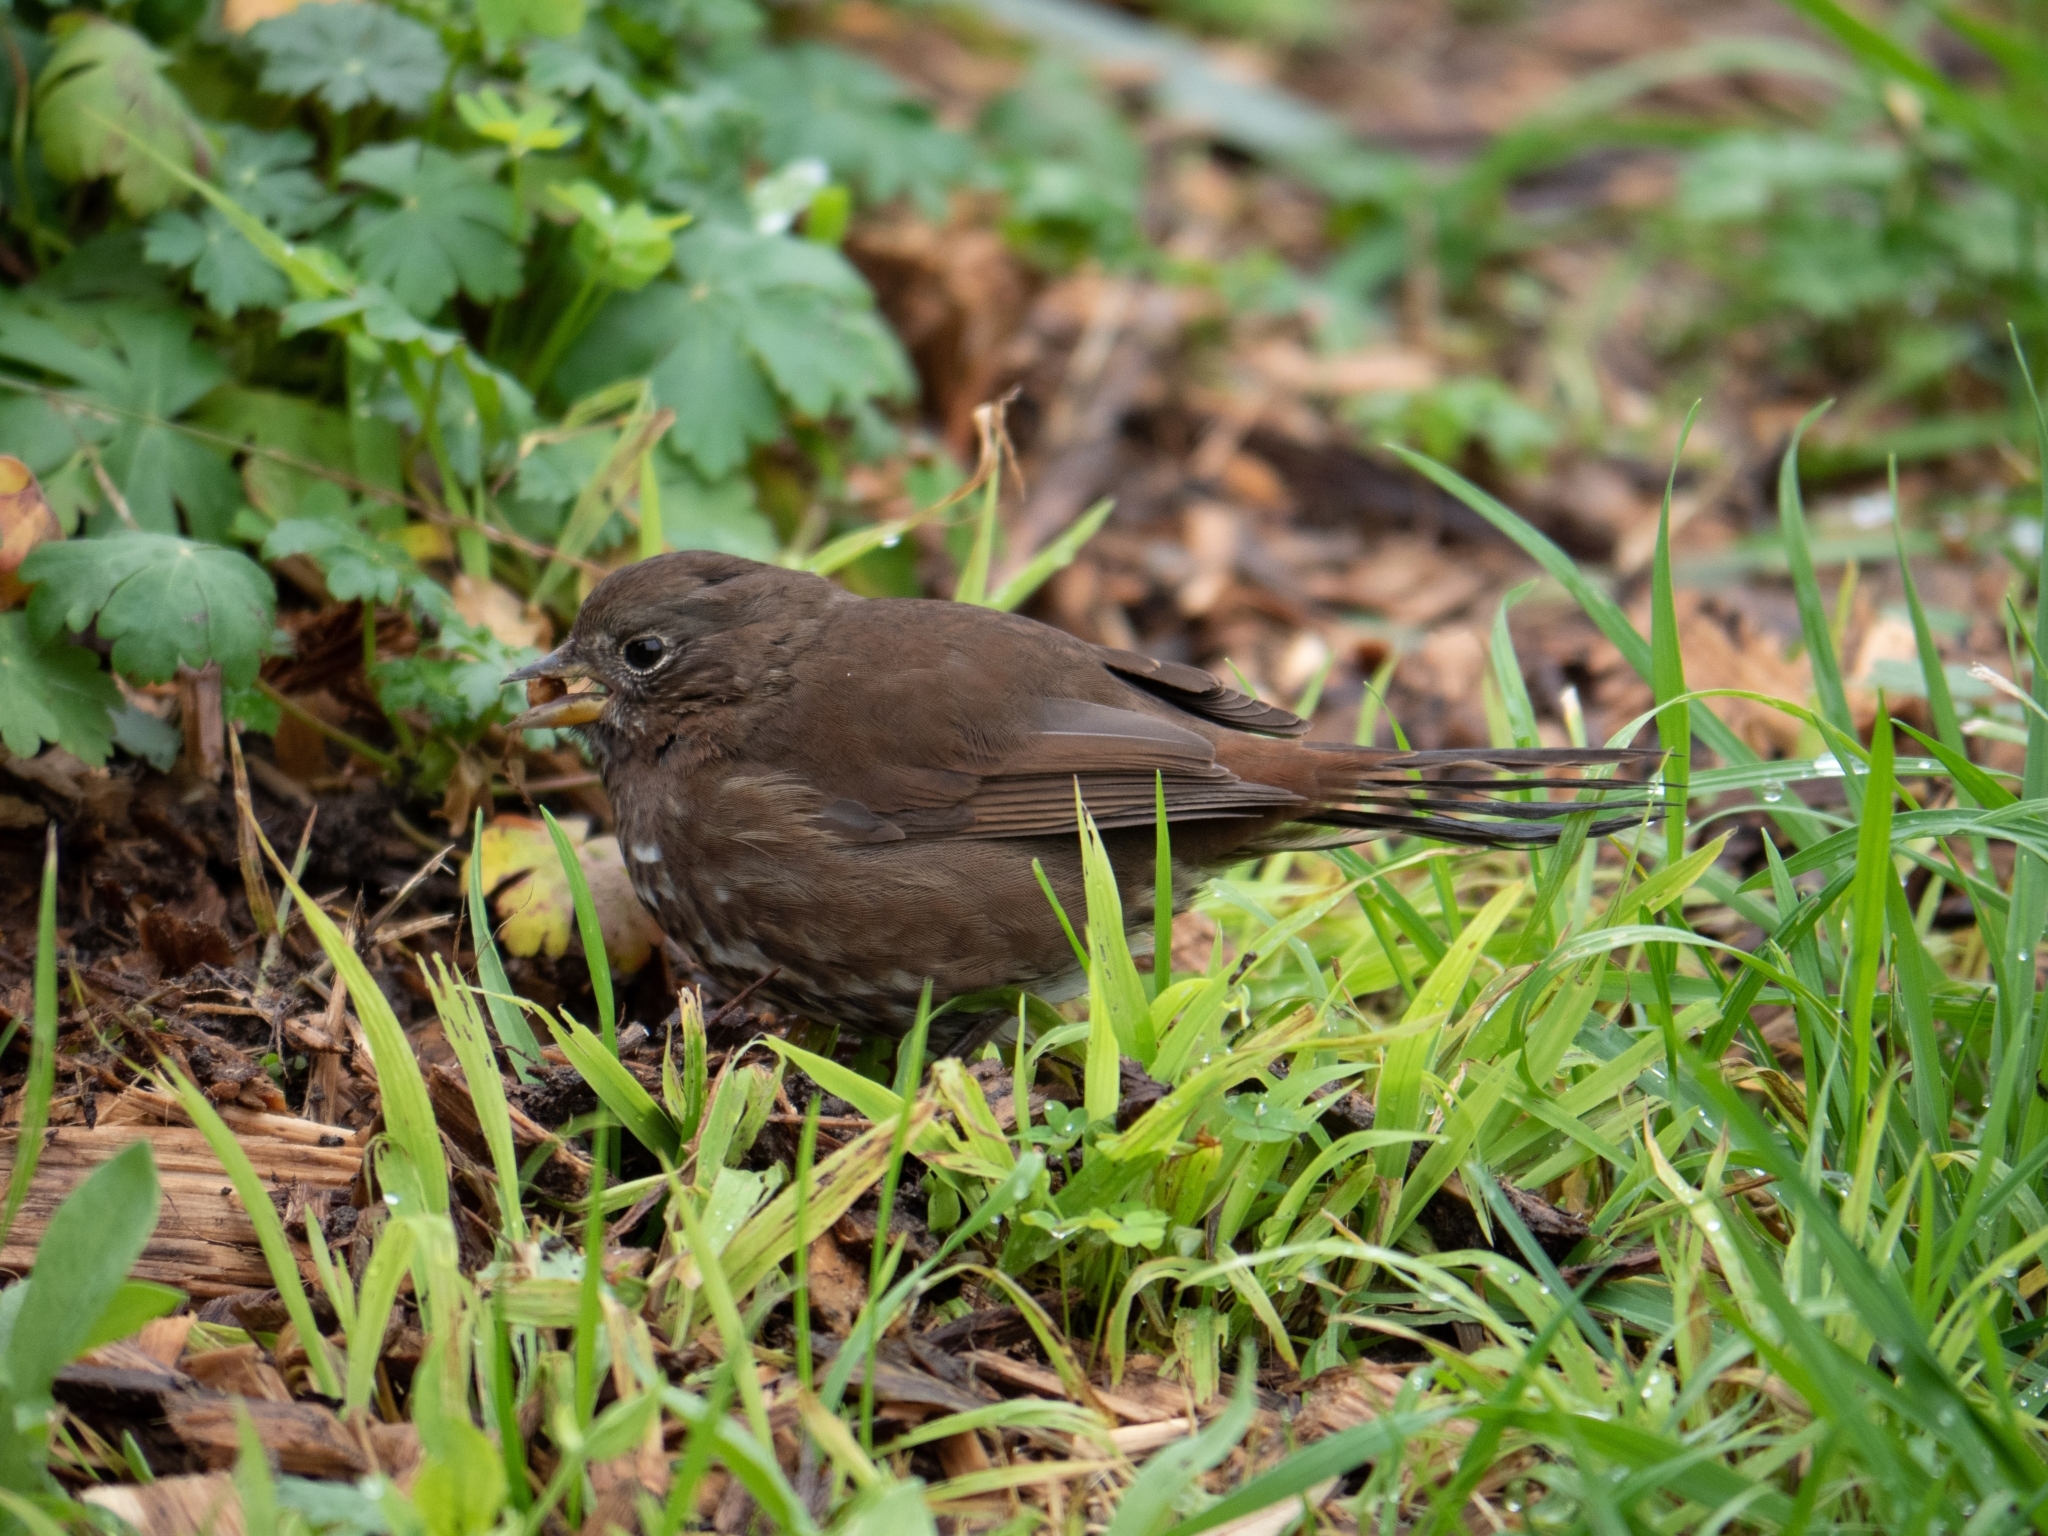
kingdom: Animalia
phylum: Chordata
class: Aves
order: Passeriformes
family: Passerellidae
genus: Passerella
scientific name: Passerella iliaca
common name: Fox sparrow
